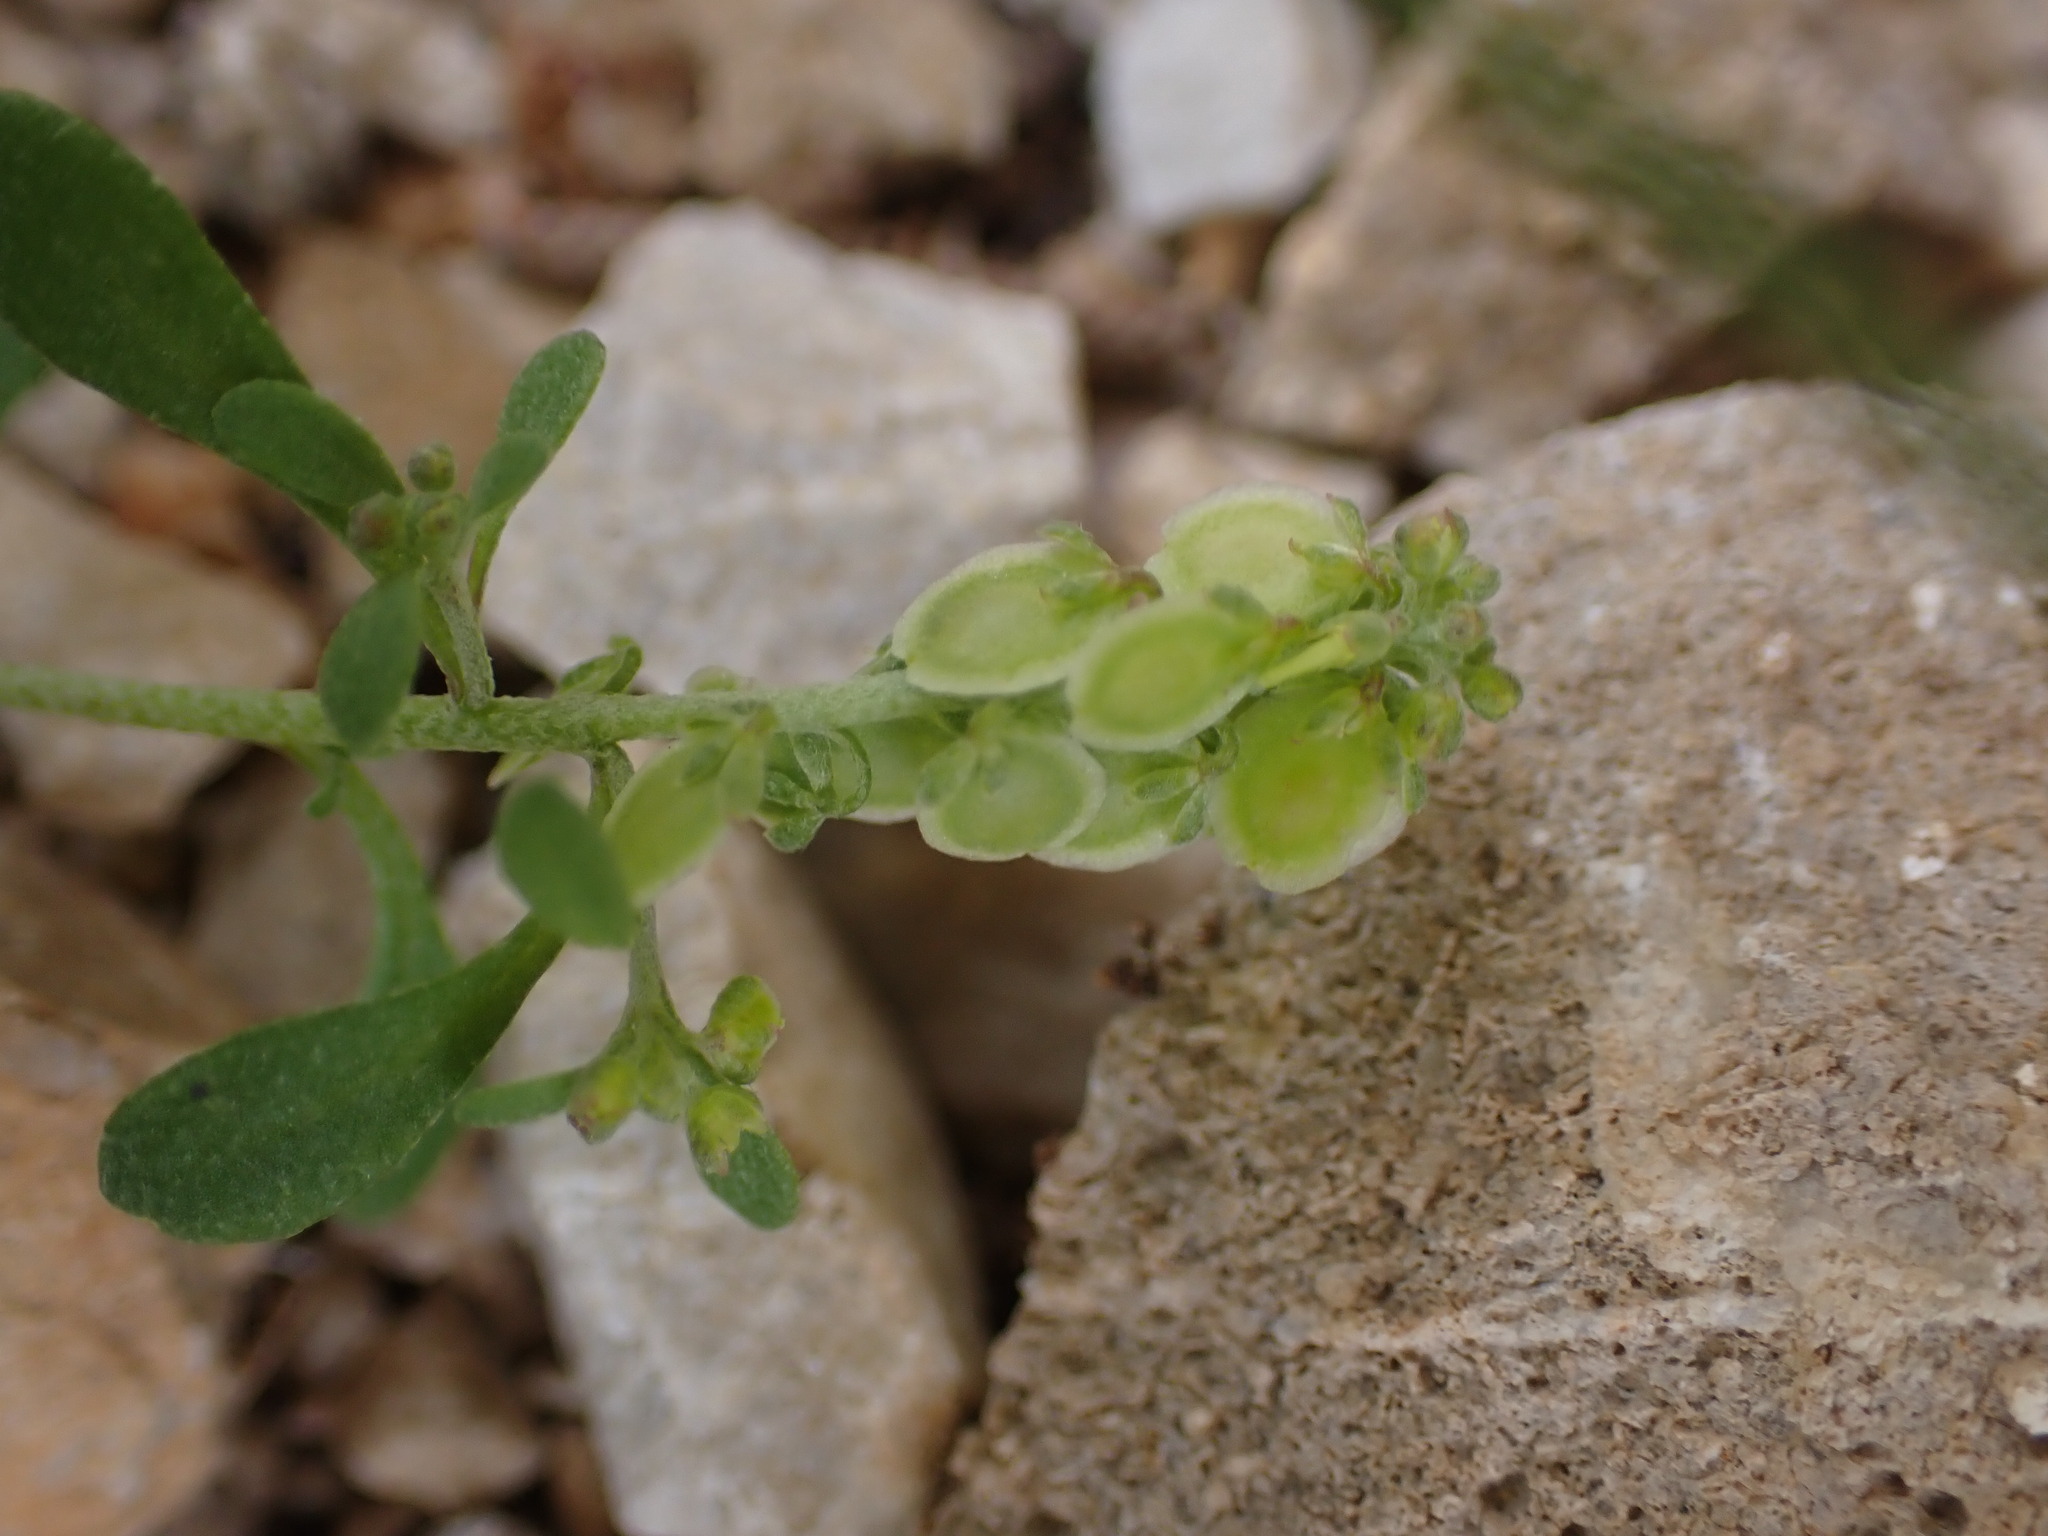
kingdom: Plantae
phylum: Tracheophyta
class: Magnoliopsida
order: Brassicales
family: Brassicaceae
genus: Clypeola
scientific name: Clypeola jonthlaspi
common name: Disk cress
